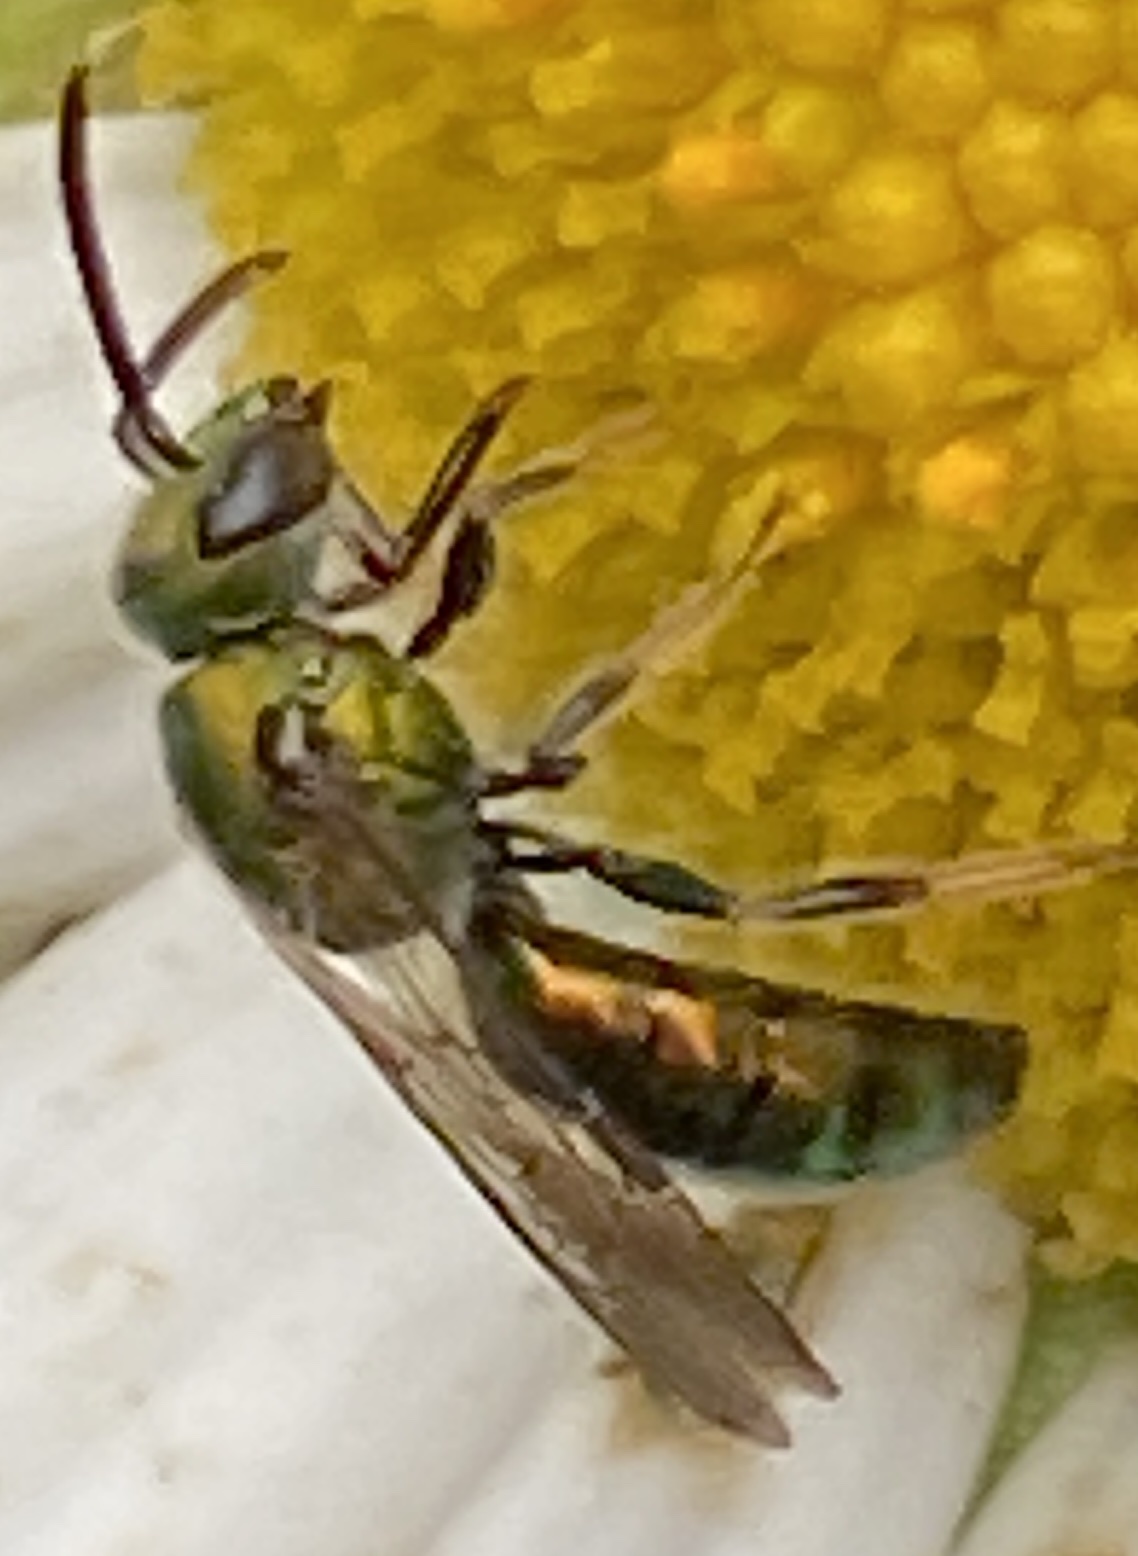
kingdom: Animalia
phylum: Arthropoda
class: Insecta
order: Hymenoptera
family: Halictidae
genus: Augochlora
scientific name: Augochlora pura
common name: Pure green sweat bee
